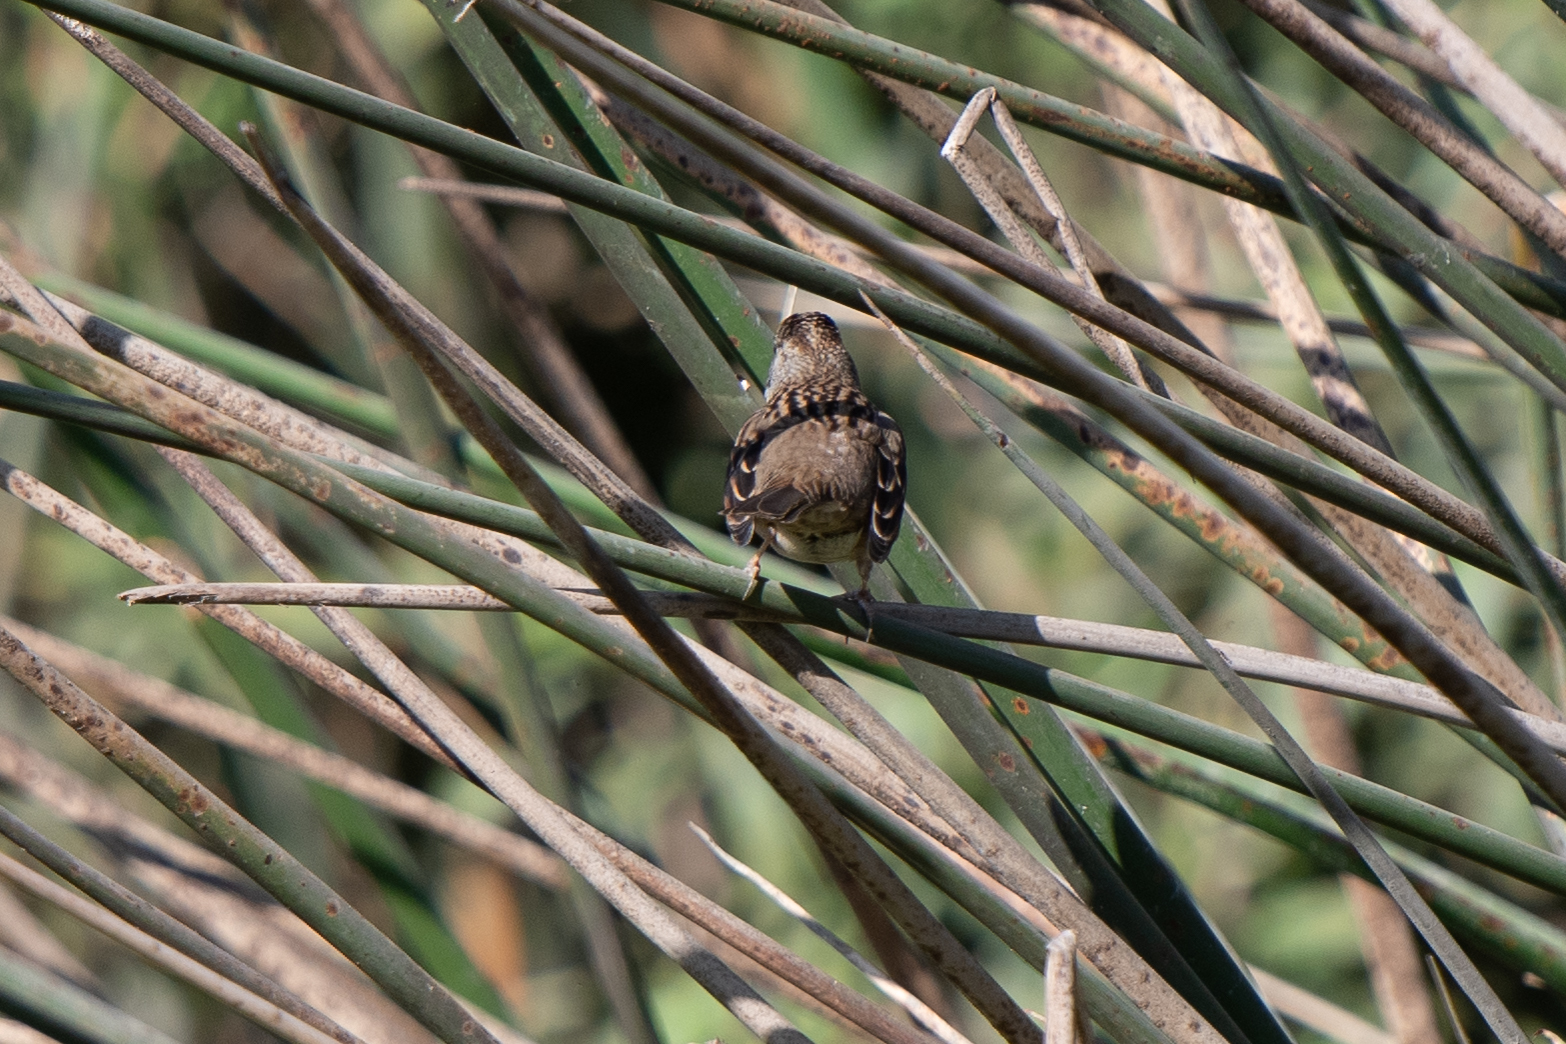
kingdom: Animalia
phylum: Chordata
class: Aves
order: Passeriformes
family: Passerellidae
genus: Zonotrichia
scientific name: Zonotrichia atricapilla
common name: Golden-crowned sparrow
